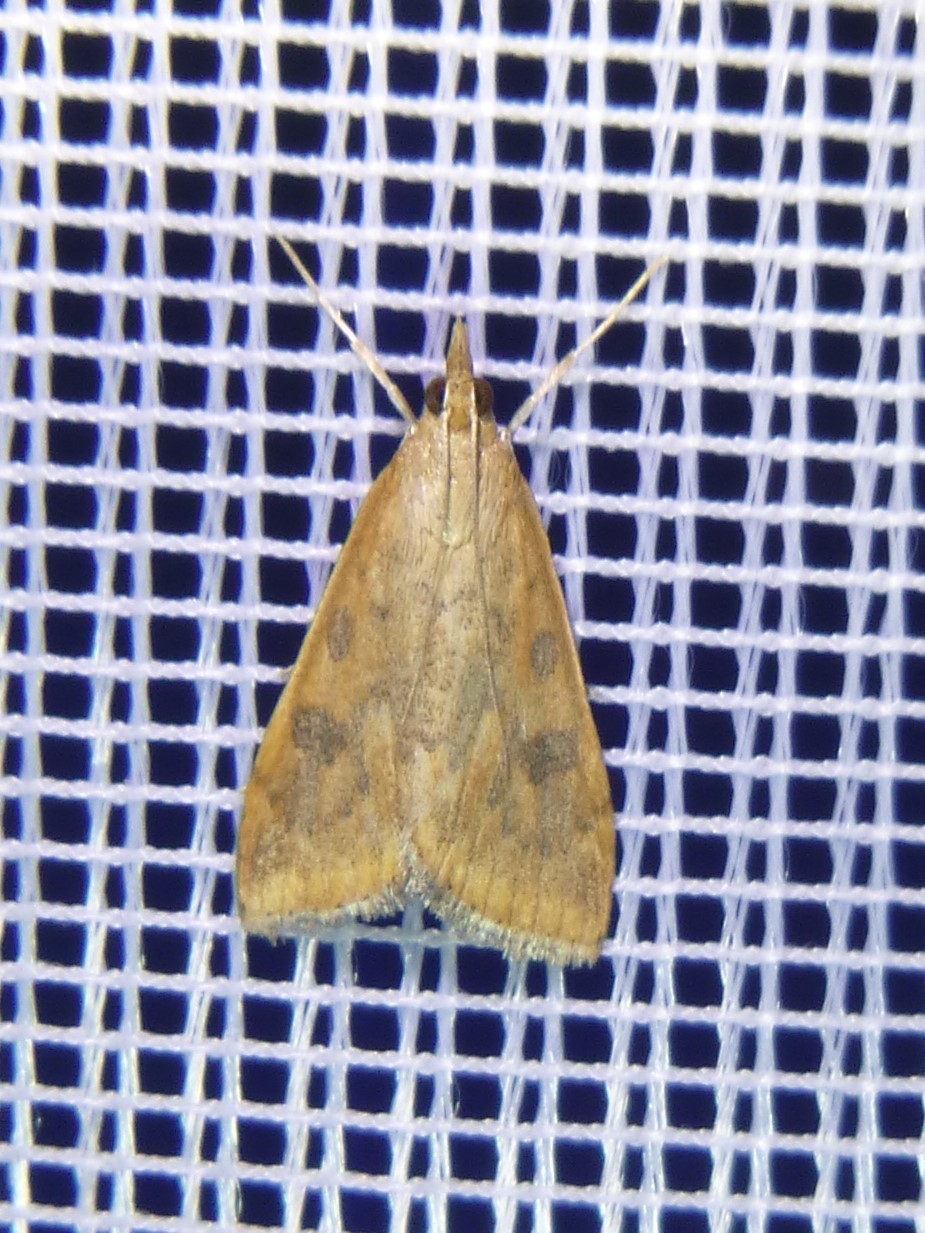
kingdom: Animalia
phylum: Arthropoda
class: Insecta
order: Lepidoptera
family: Crambidae
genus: Udea
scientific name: Udea ferrugalis
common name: Rusty dot
